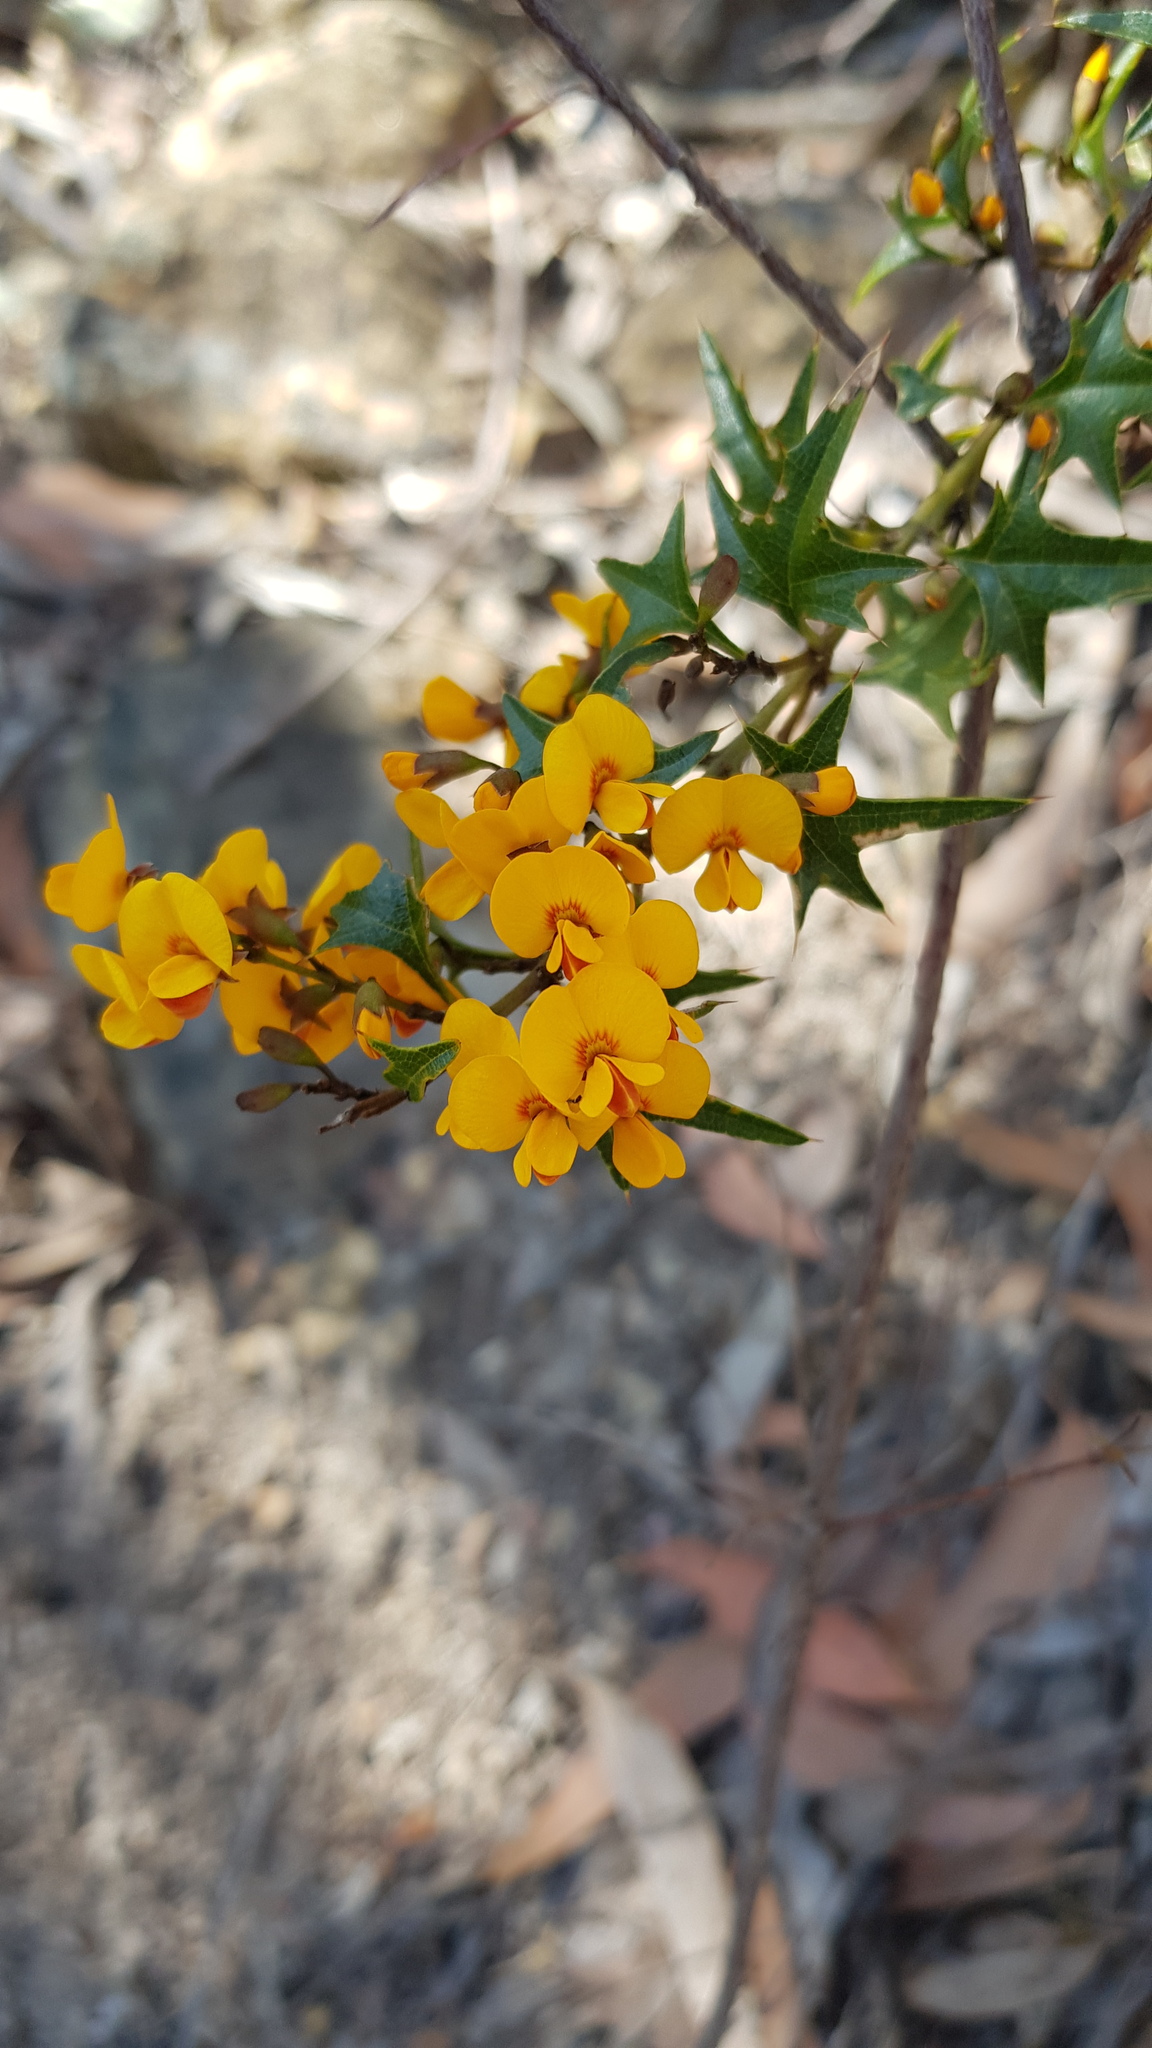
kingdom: Plantae
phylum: Tracheophyta
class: Magnoliopsida
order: Fabales
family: Fabaceae
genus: Podolobium
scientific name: Podolobium ilicifolium
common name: Native holly
